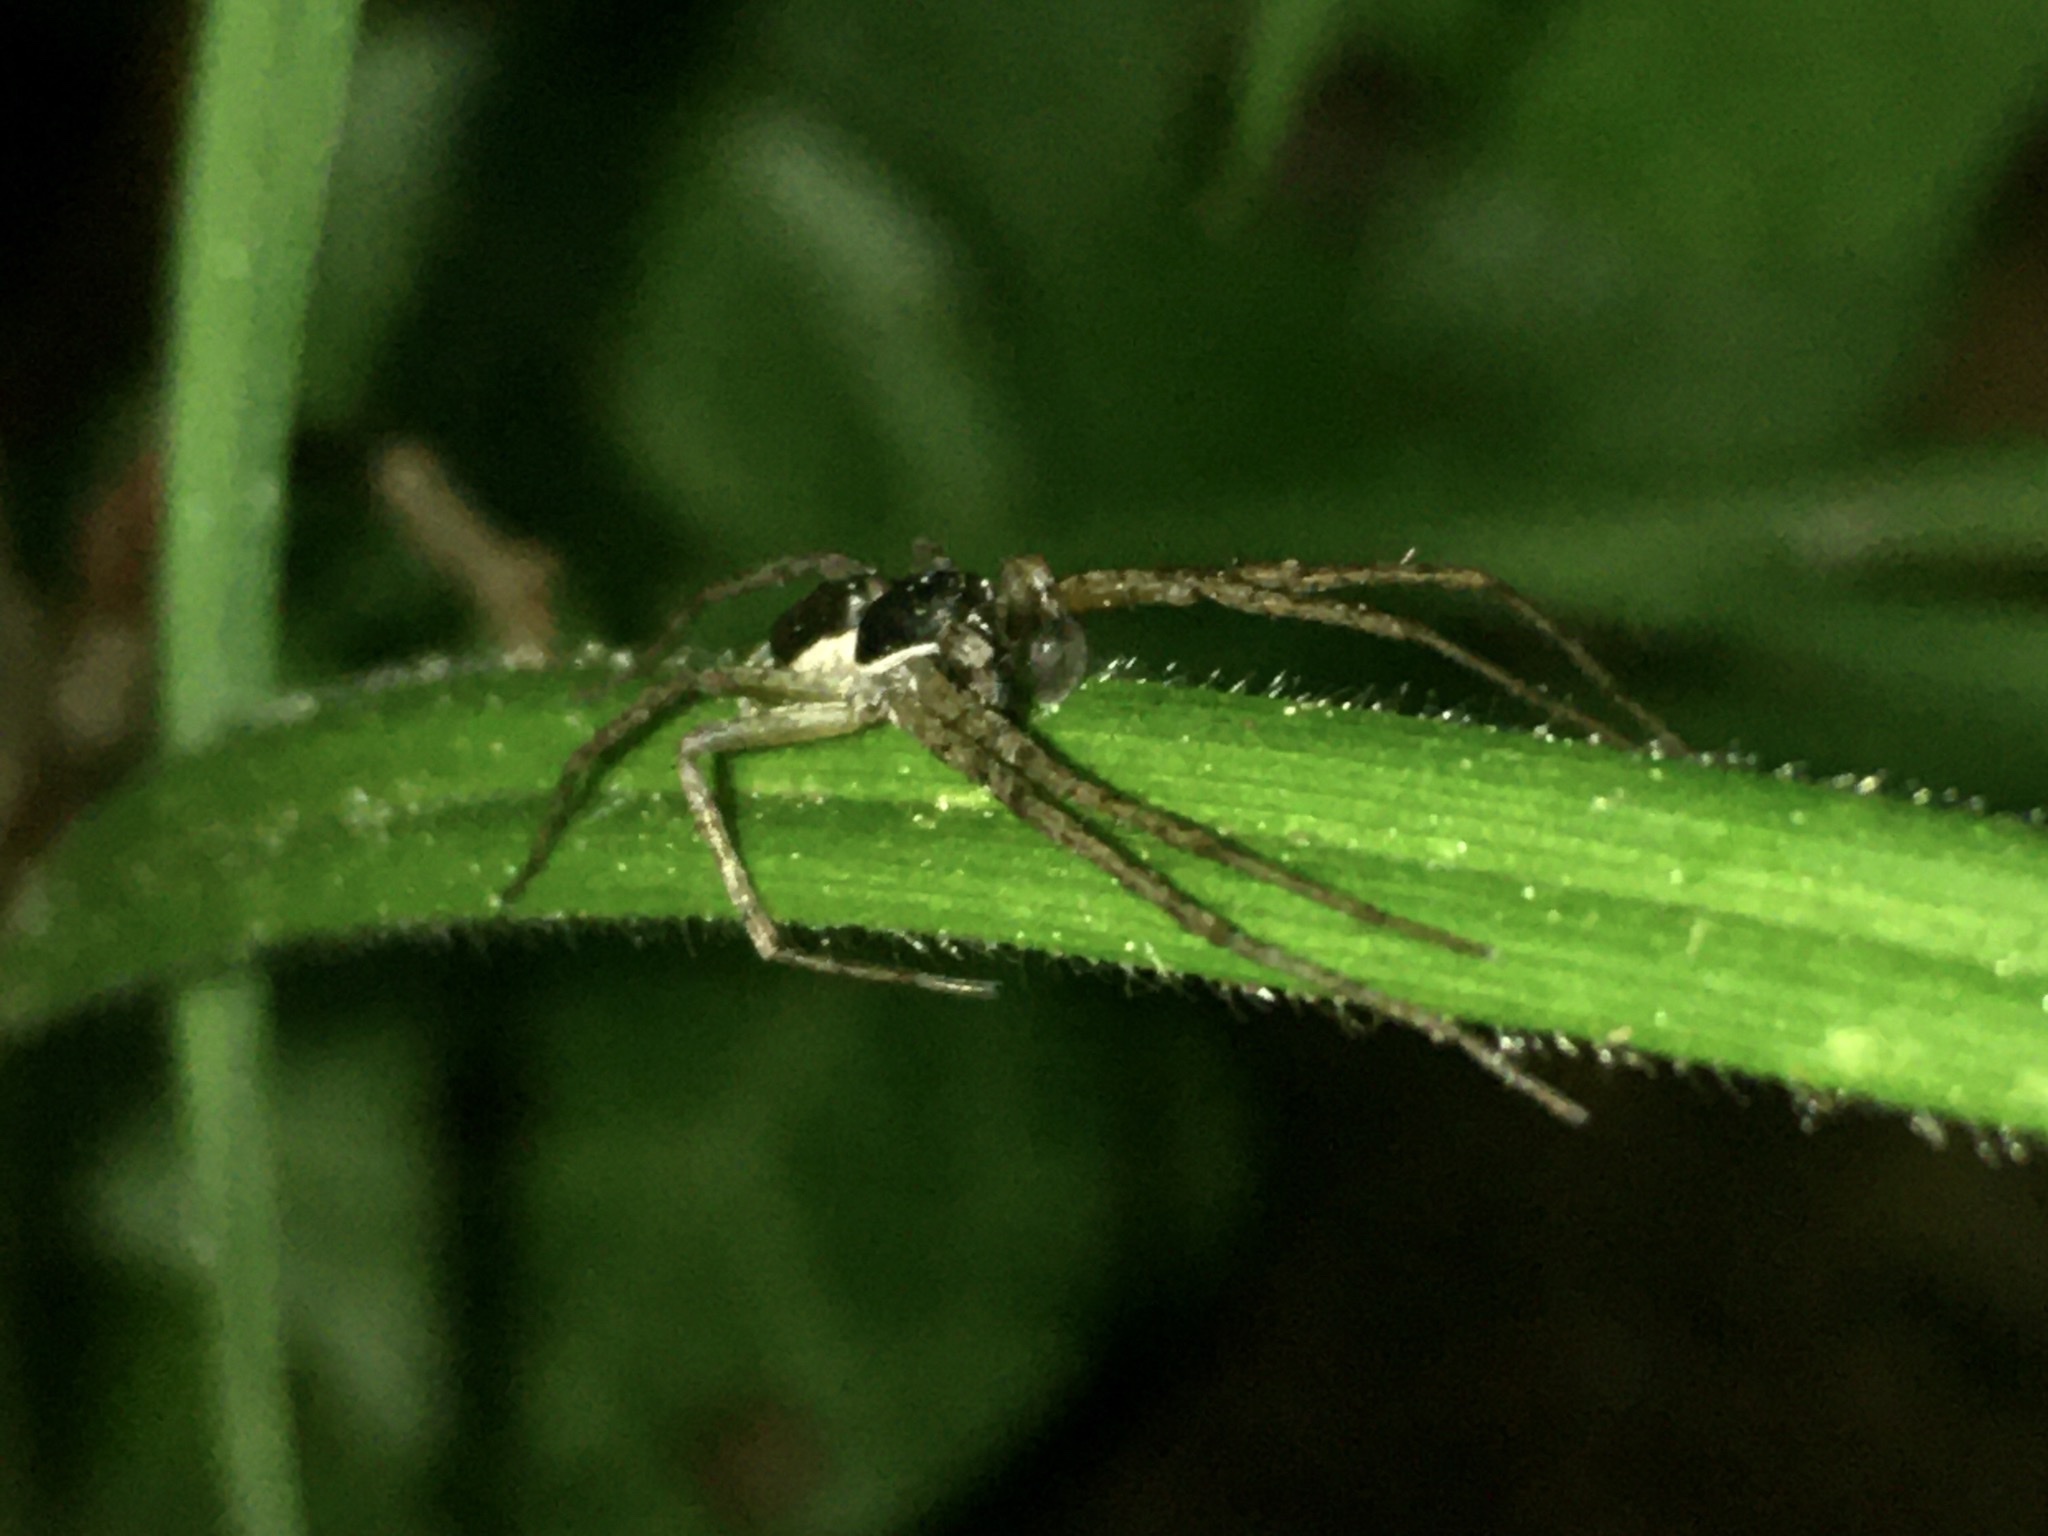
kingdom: Animalia
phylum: Arthropoda
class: Arachnida
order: Araneae
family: Philodromidae
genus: Philodromus
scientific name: Philodromus dispar
